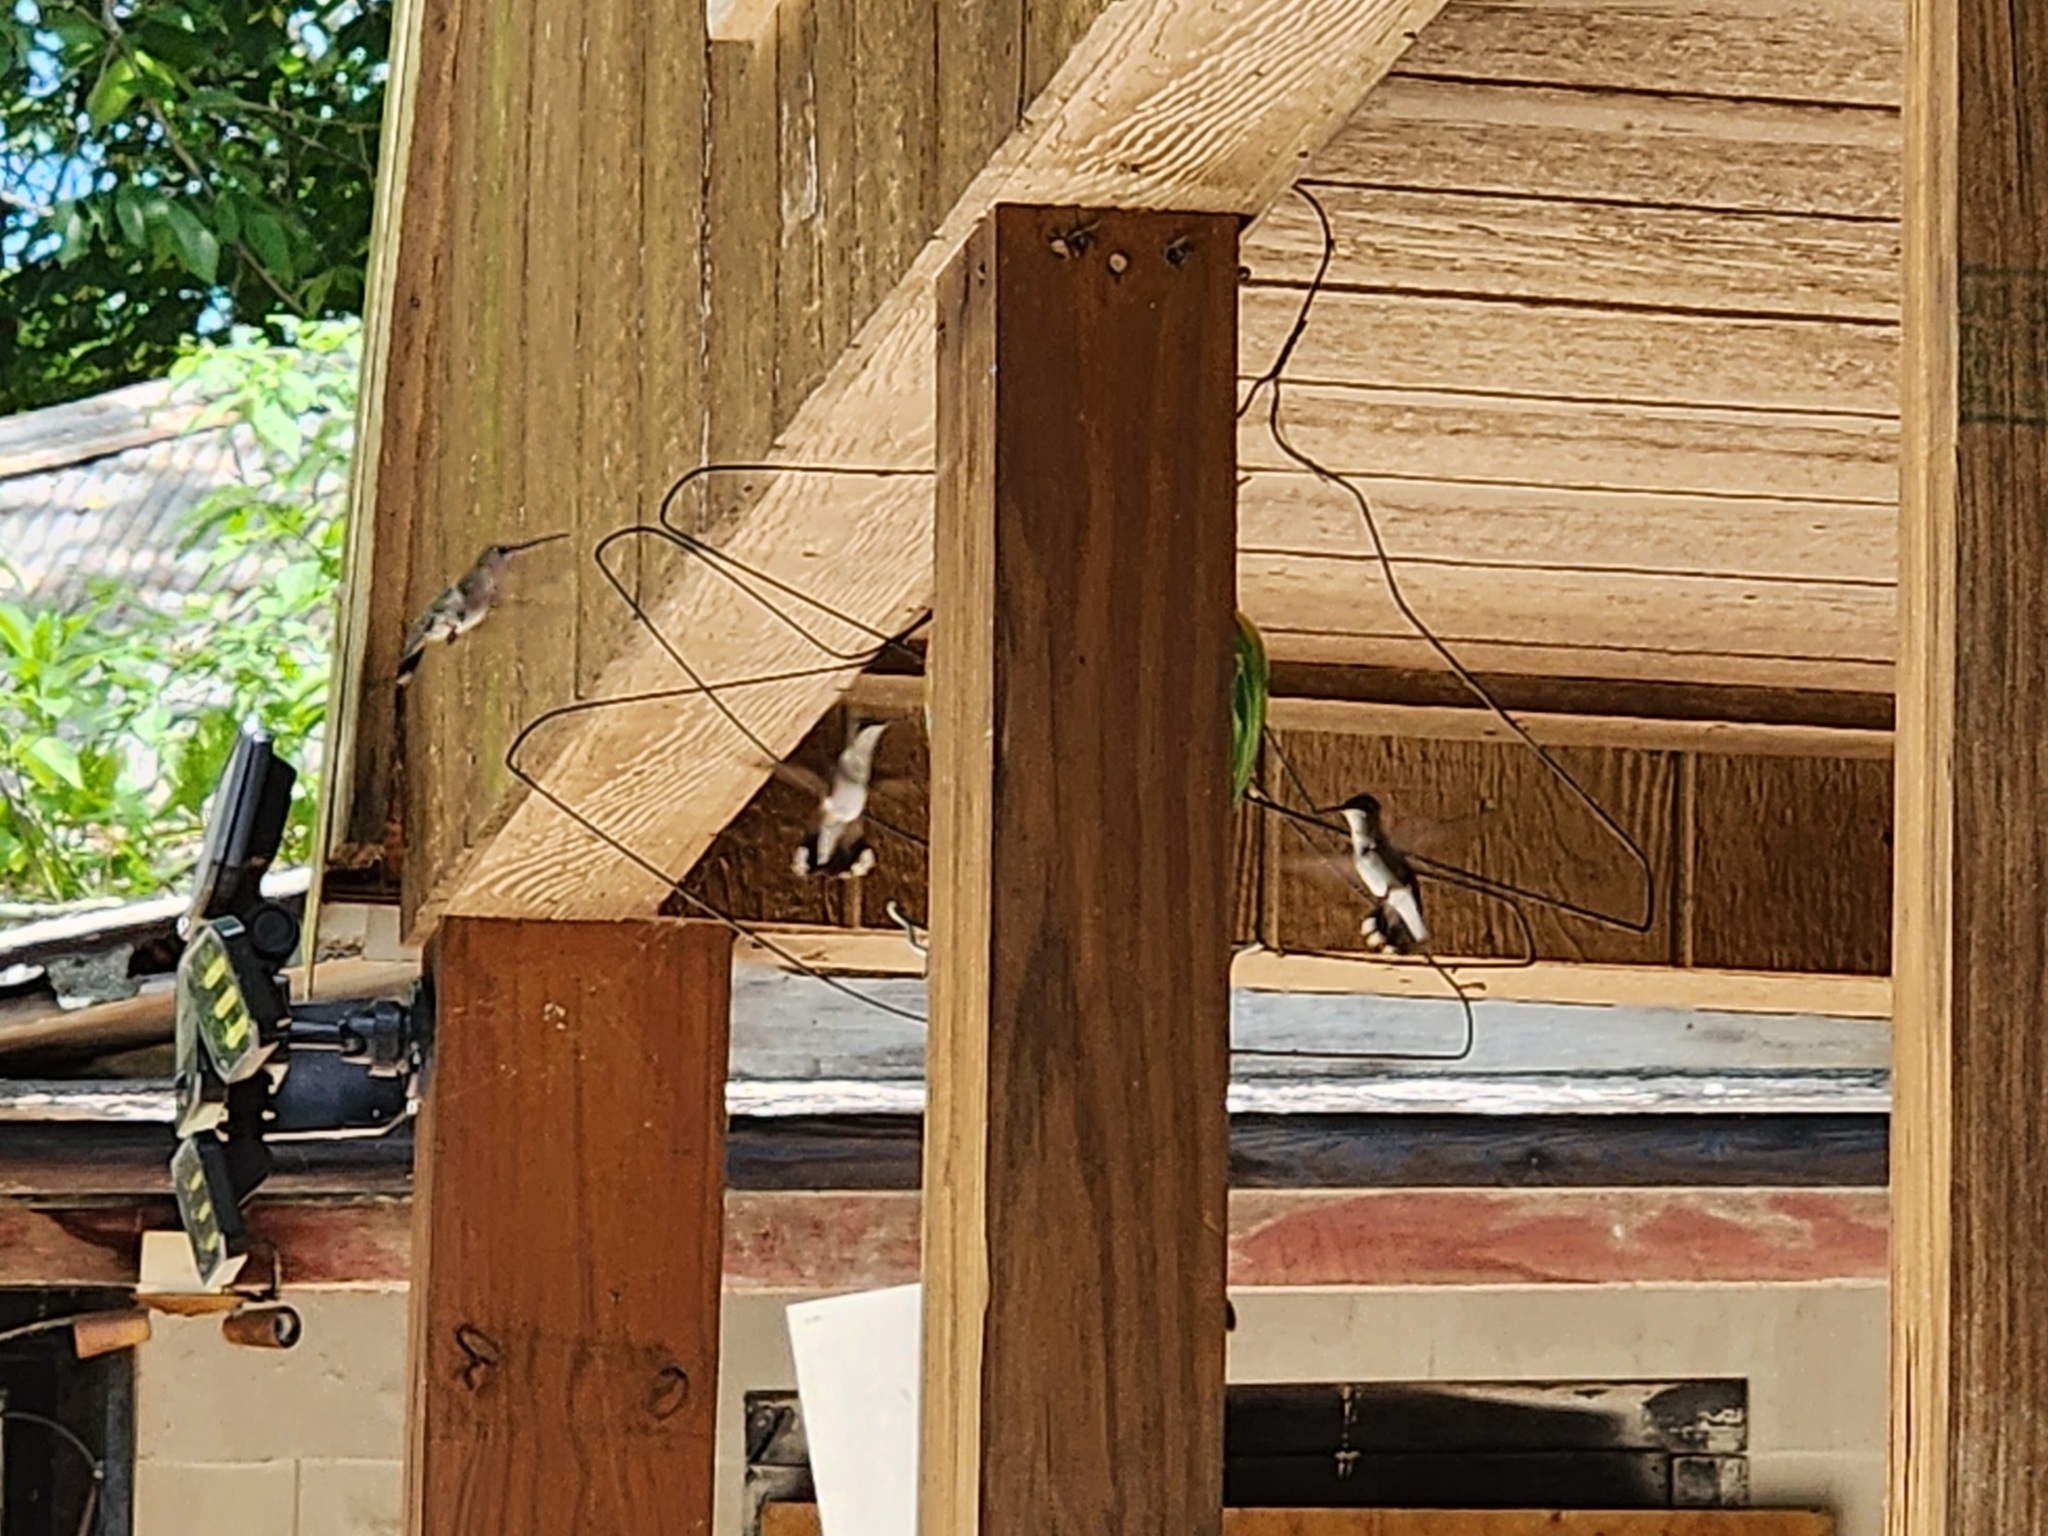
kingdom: Animalia
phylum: Chordata
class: Aves
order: Apodiformes
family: Trochilidae
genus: Archilochus
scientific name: Archilochus colubris
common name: Ruby-throated hummingbird
